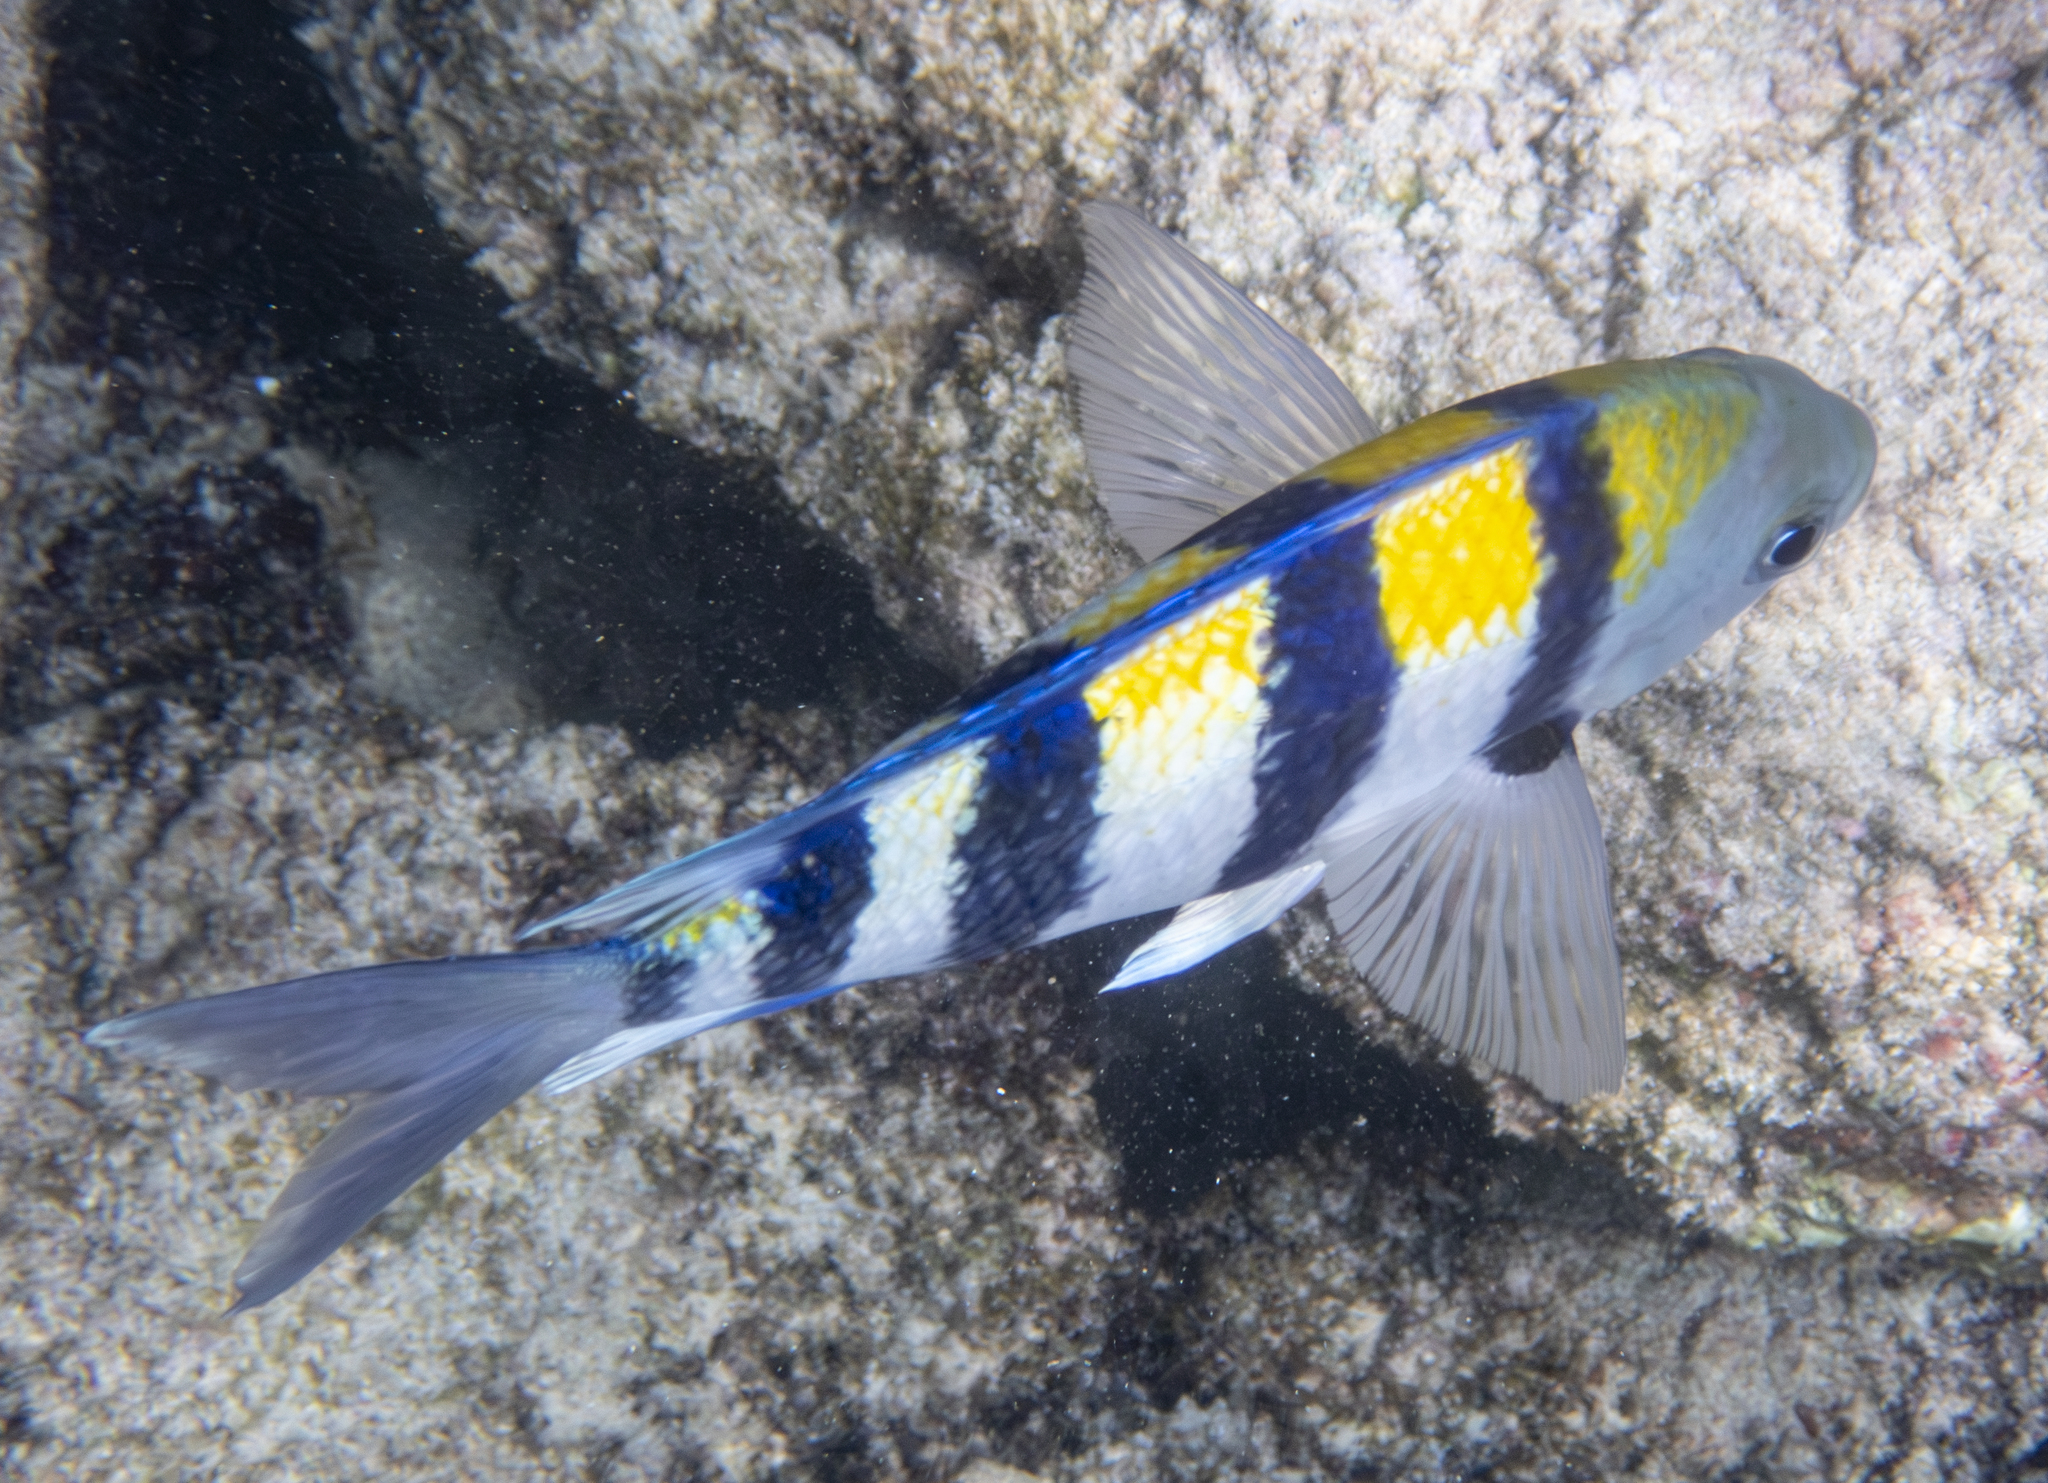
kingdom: Animalia
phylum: Chordata
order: Perciformes
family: Pomacentridae
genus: Abudefduf
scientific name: Abudefduf vaigiensis
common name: Indo-pacific sergeant
